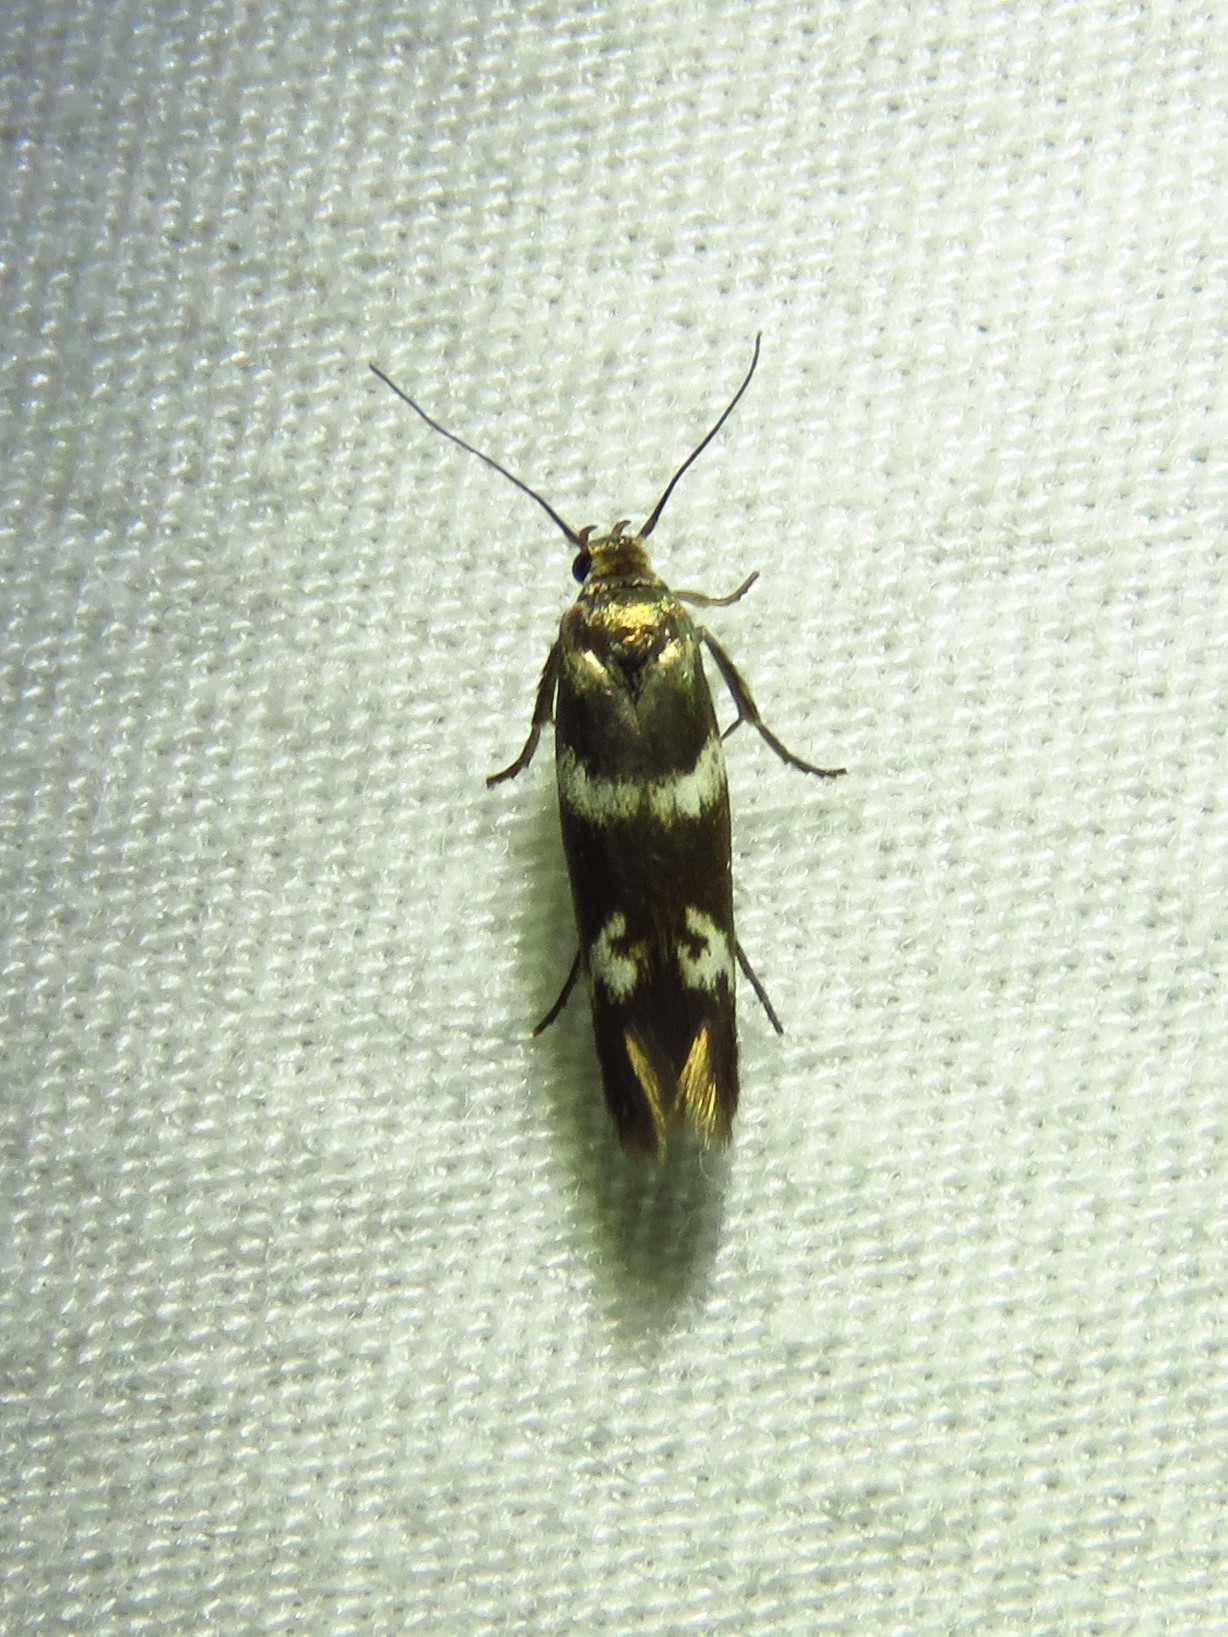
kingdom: Animalia
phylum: Arthropoda
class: Insecta
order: Lepidoptera
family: Scythrididae
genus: Scythris
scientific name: Scythris trivinctella
